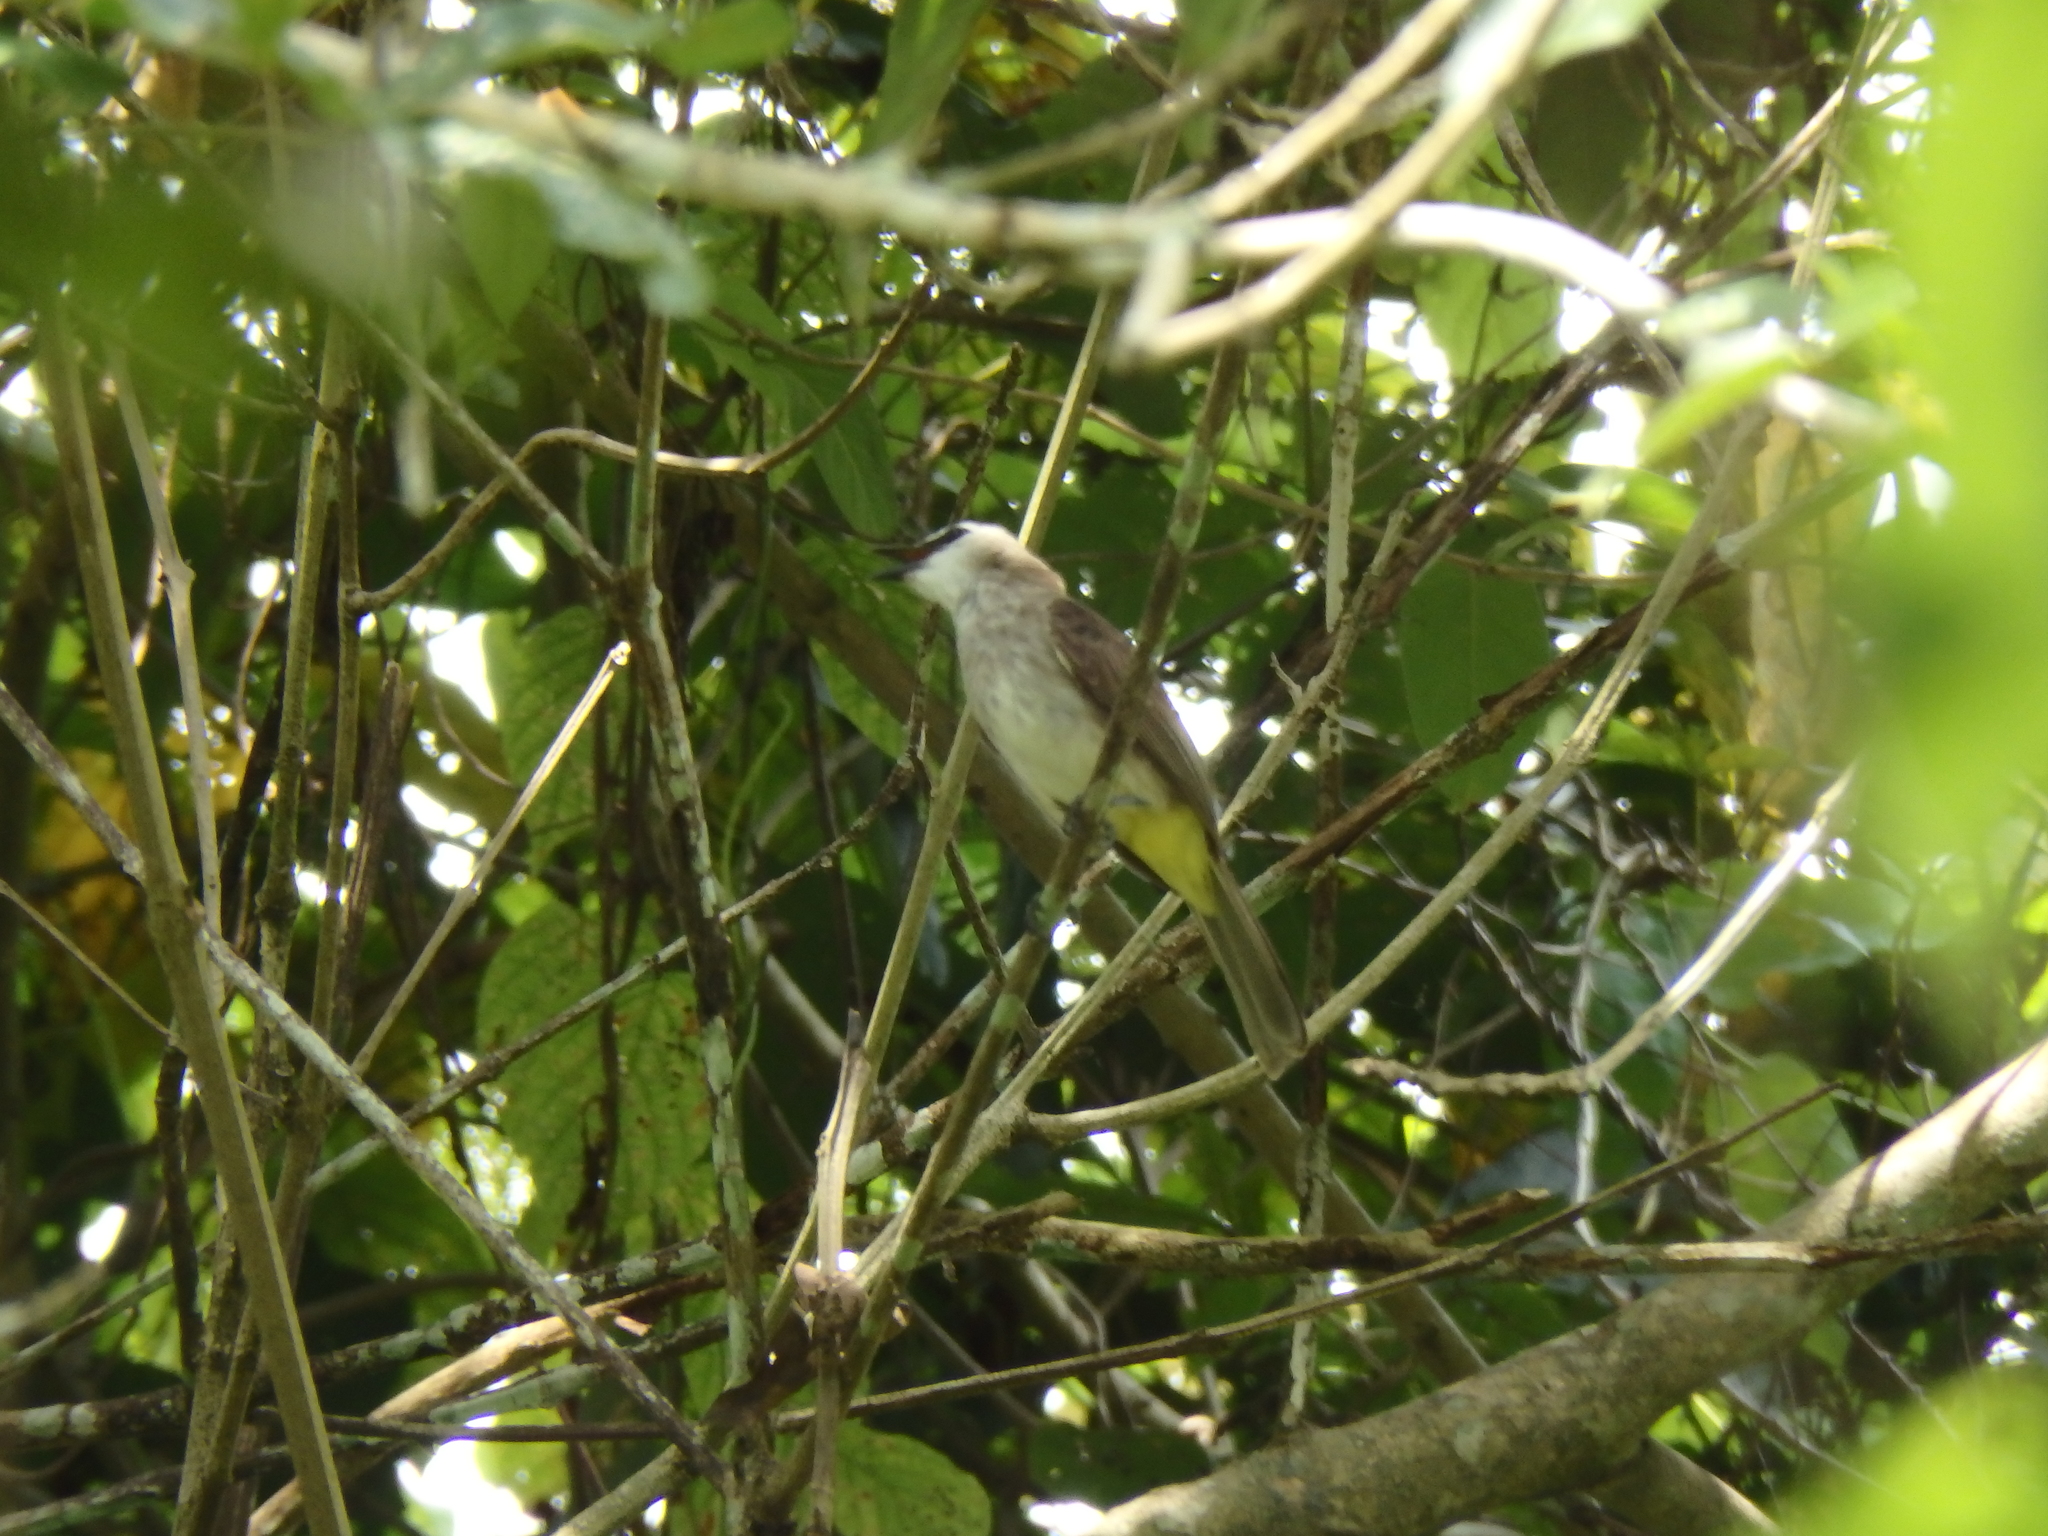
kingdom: Animalia
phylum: Chordata
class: Aves
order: Passeriformes
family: Pycnonotidae
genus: Pycnonotus
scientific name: Pycnonotus goiavier
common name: Yellow-vented bulbul
